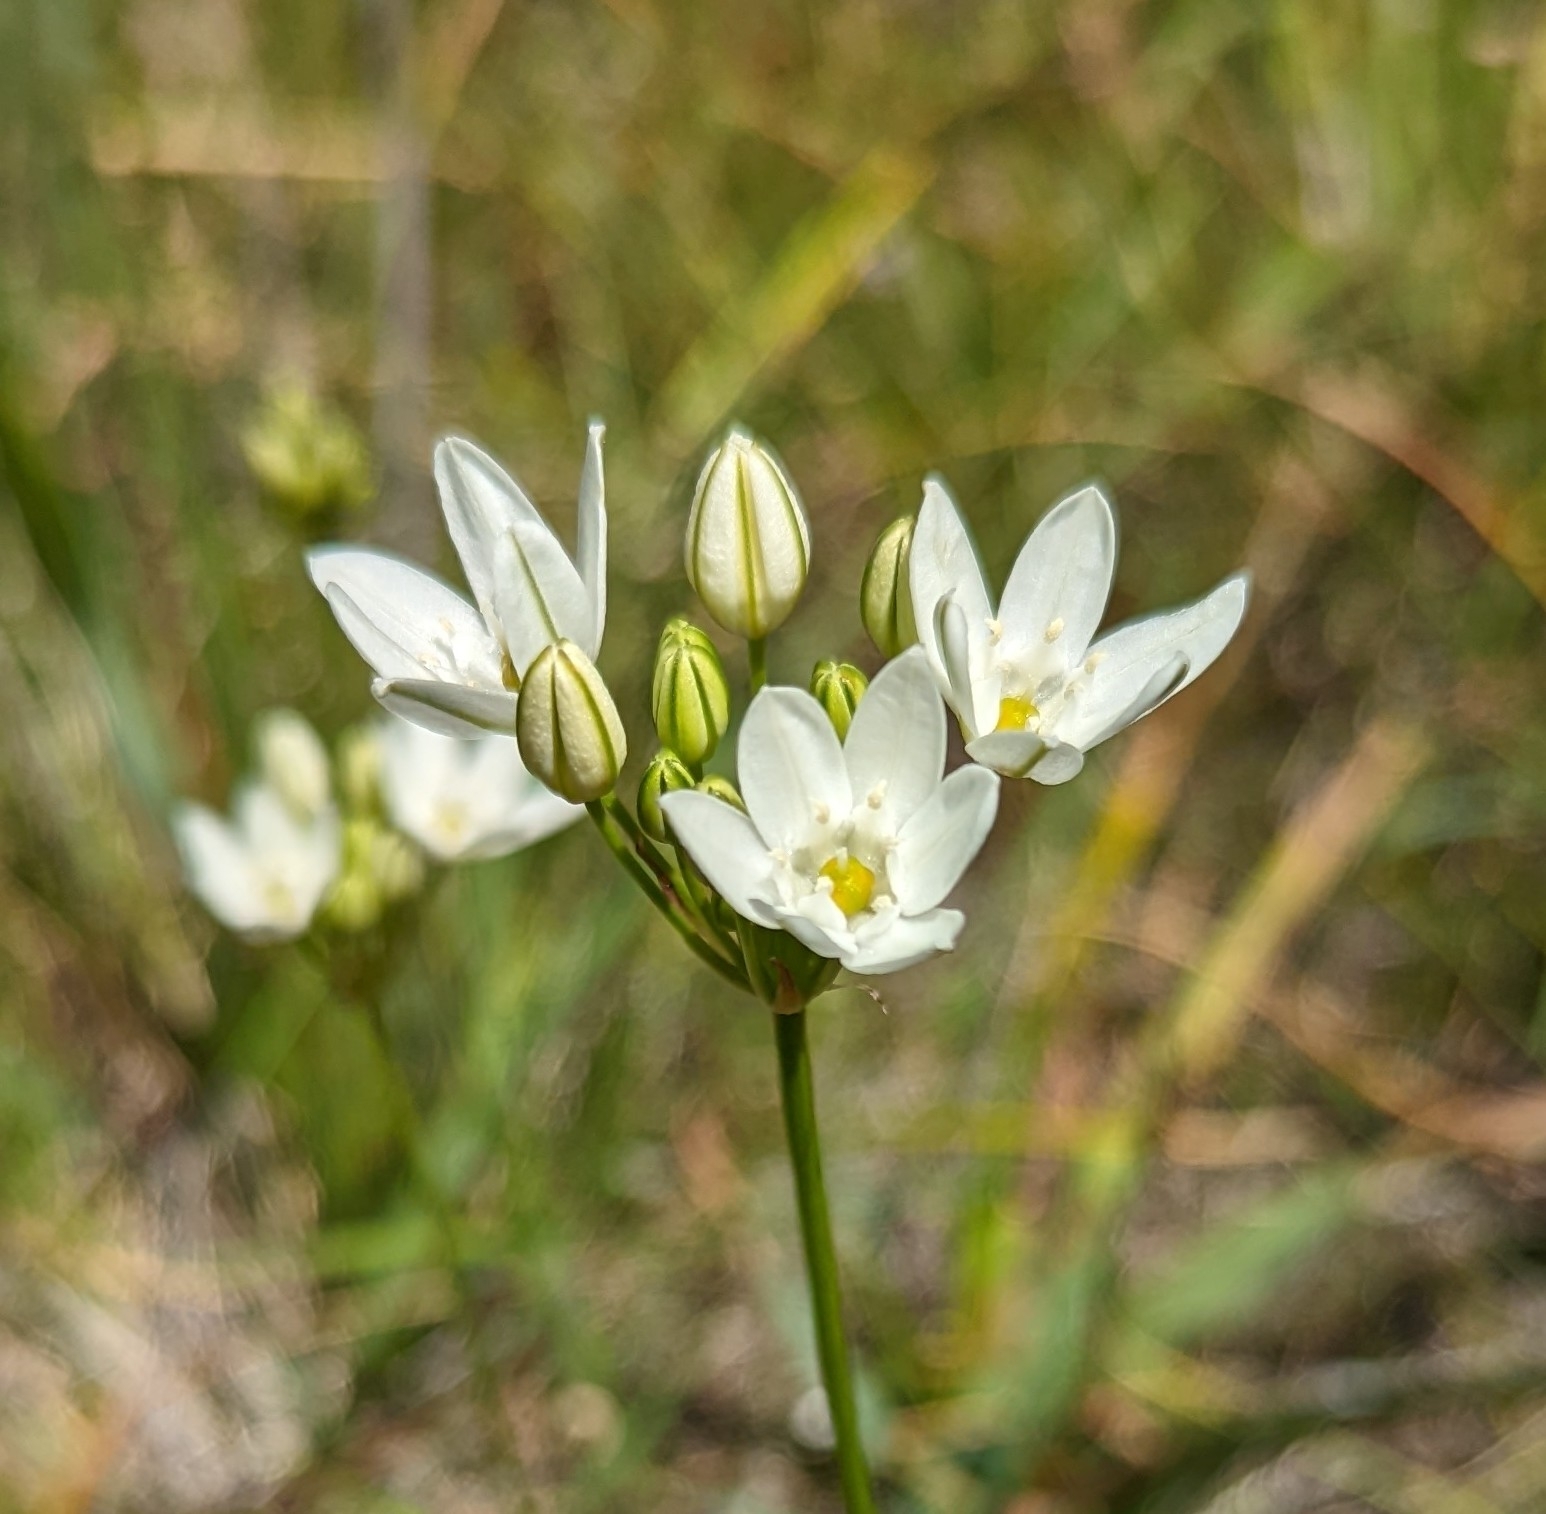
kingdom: Plantae
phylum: Tracheophyta
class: Liliopsida
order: Asparagales
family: Asparagaceae
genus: Triteleia
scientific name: Triteleia hyacinthina
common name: White brodiaea
